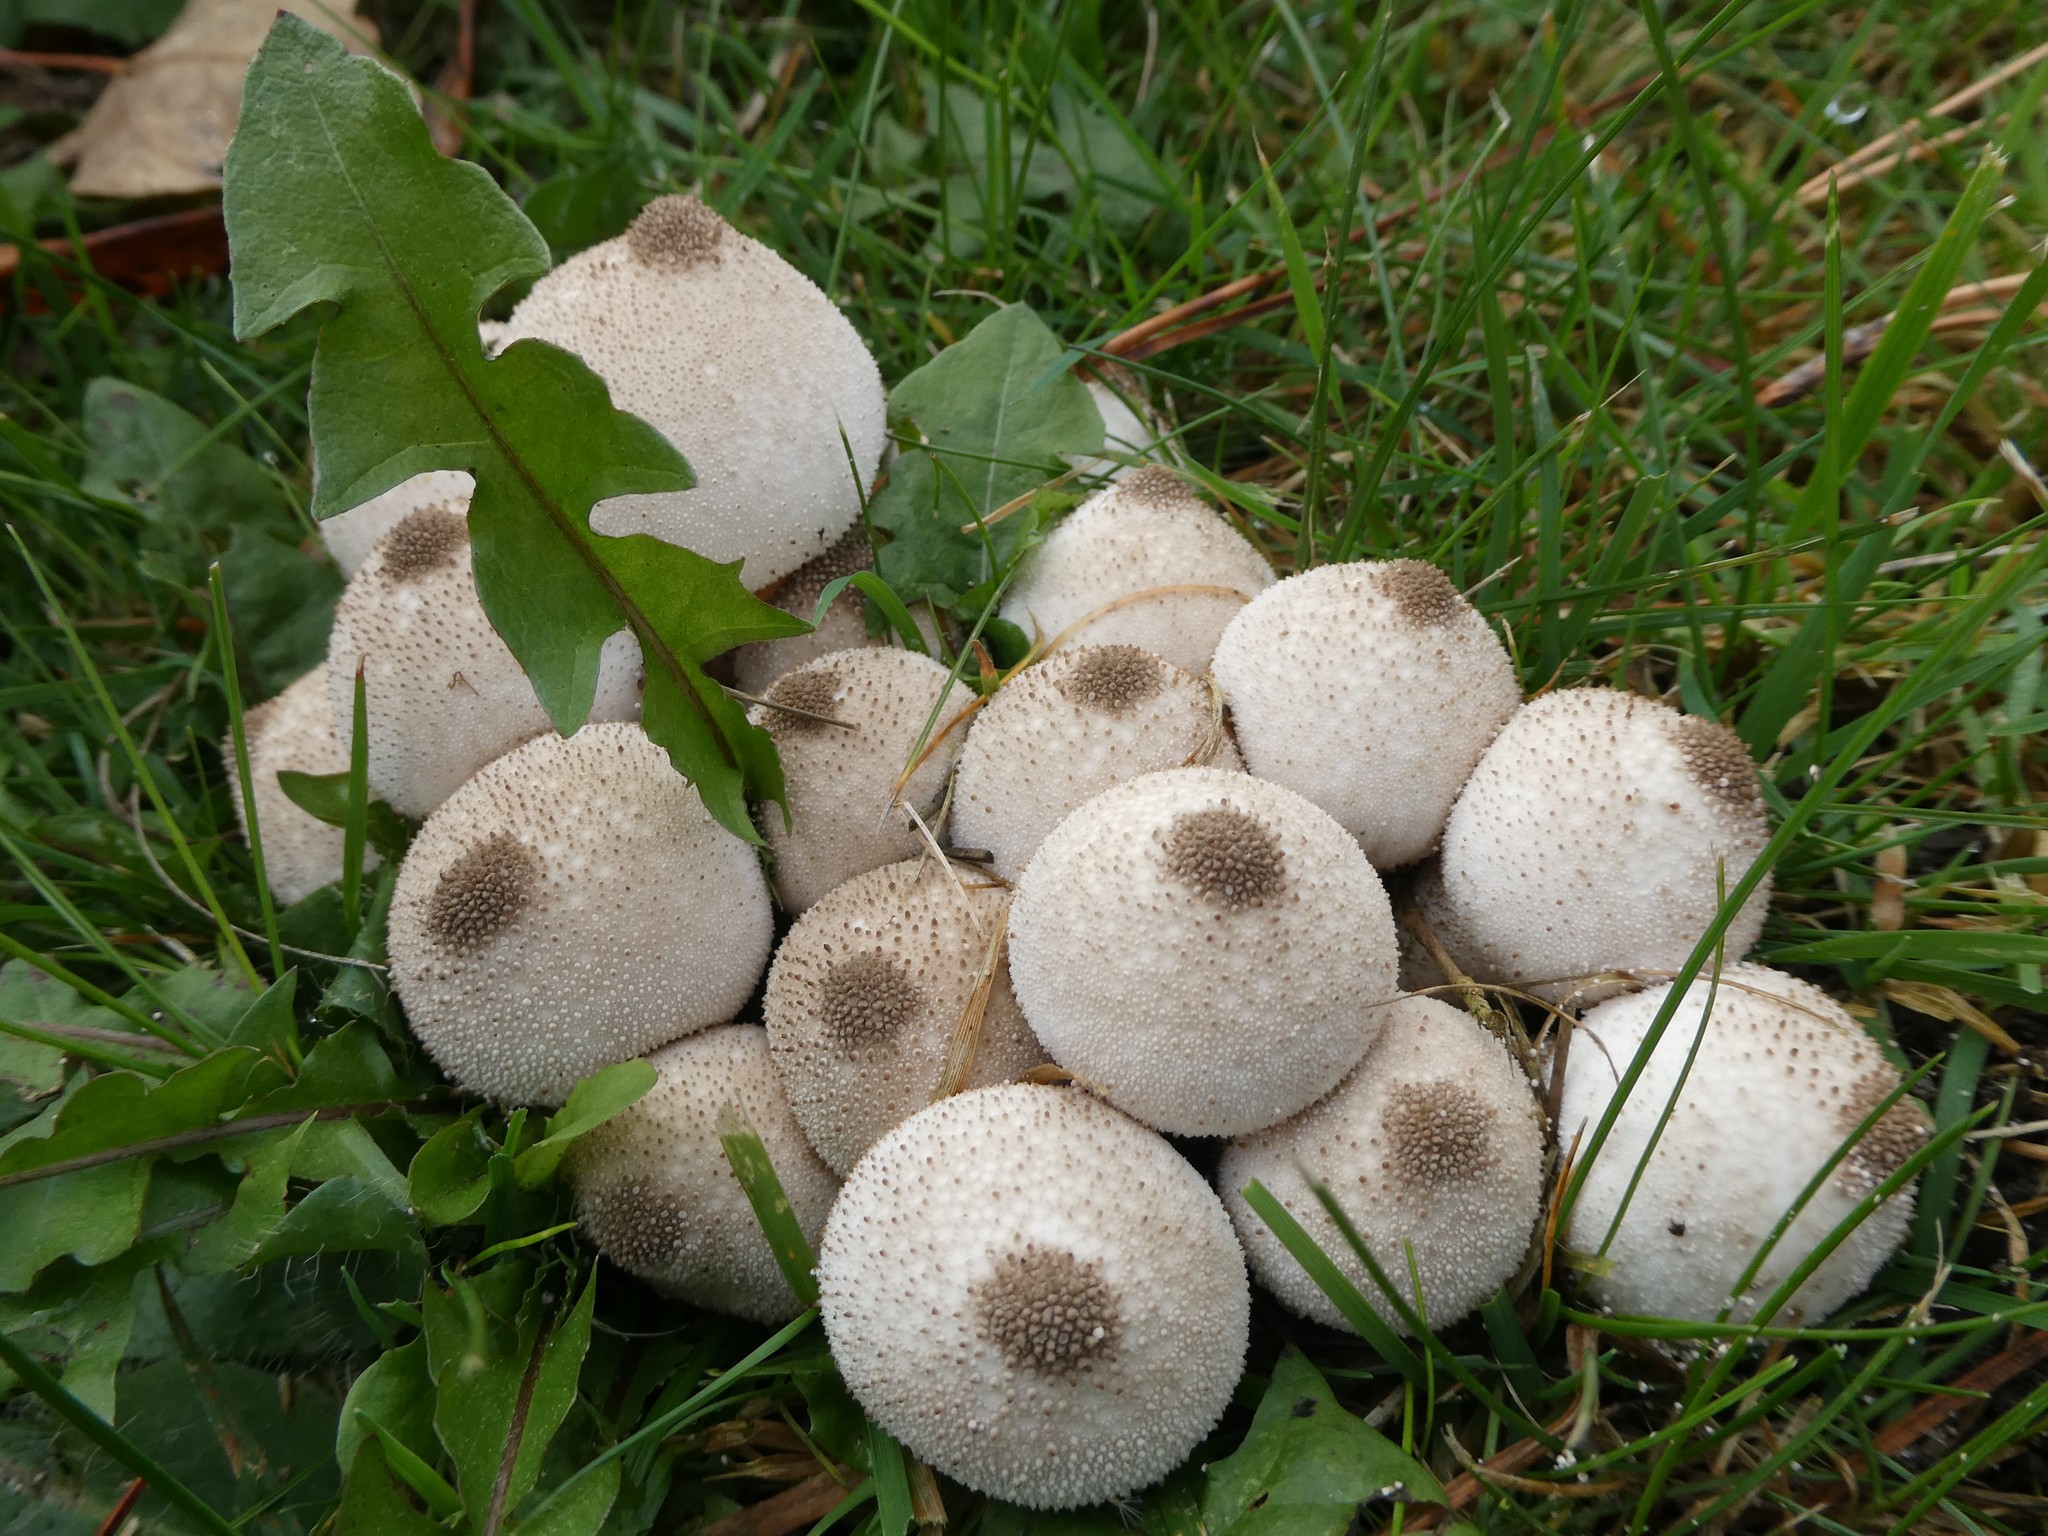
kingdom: Fungi
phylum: Basidiomycota
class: Agaricomycetes
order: Agaricales
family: Lycoperdaceae
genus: Lycoperdon
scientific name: Lycoperdon perlatum
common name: Common puffball
